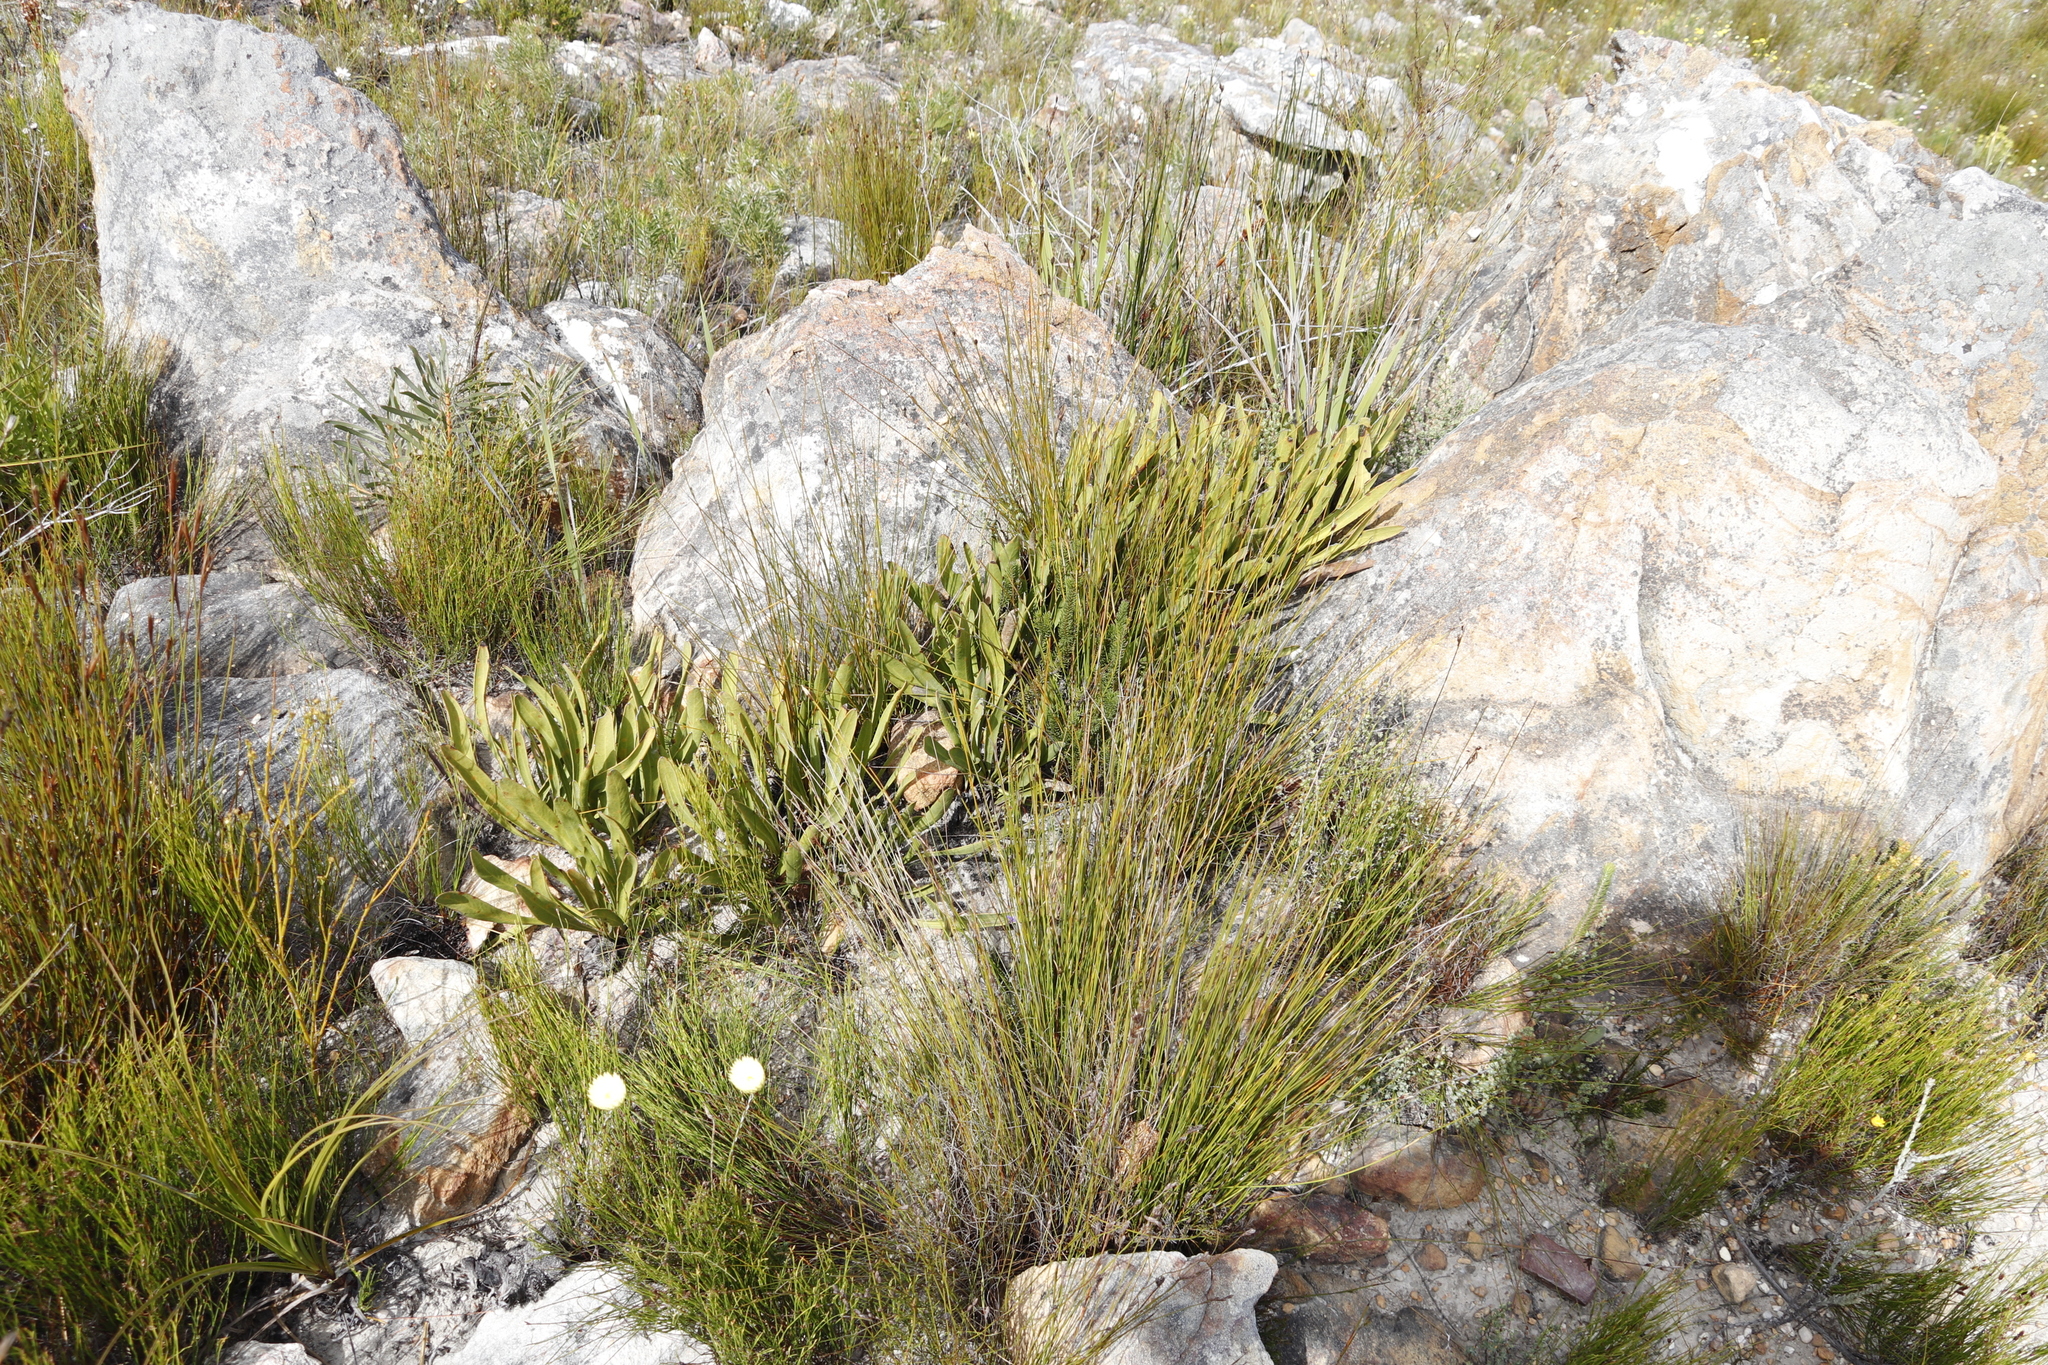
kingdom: Plantae
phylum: Tracheophyta
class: Magnoliopsida
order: Proteales
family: Proteaceae
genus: Protea
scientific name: Protea scabra
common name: Sandpaper-leaf sugarbush
